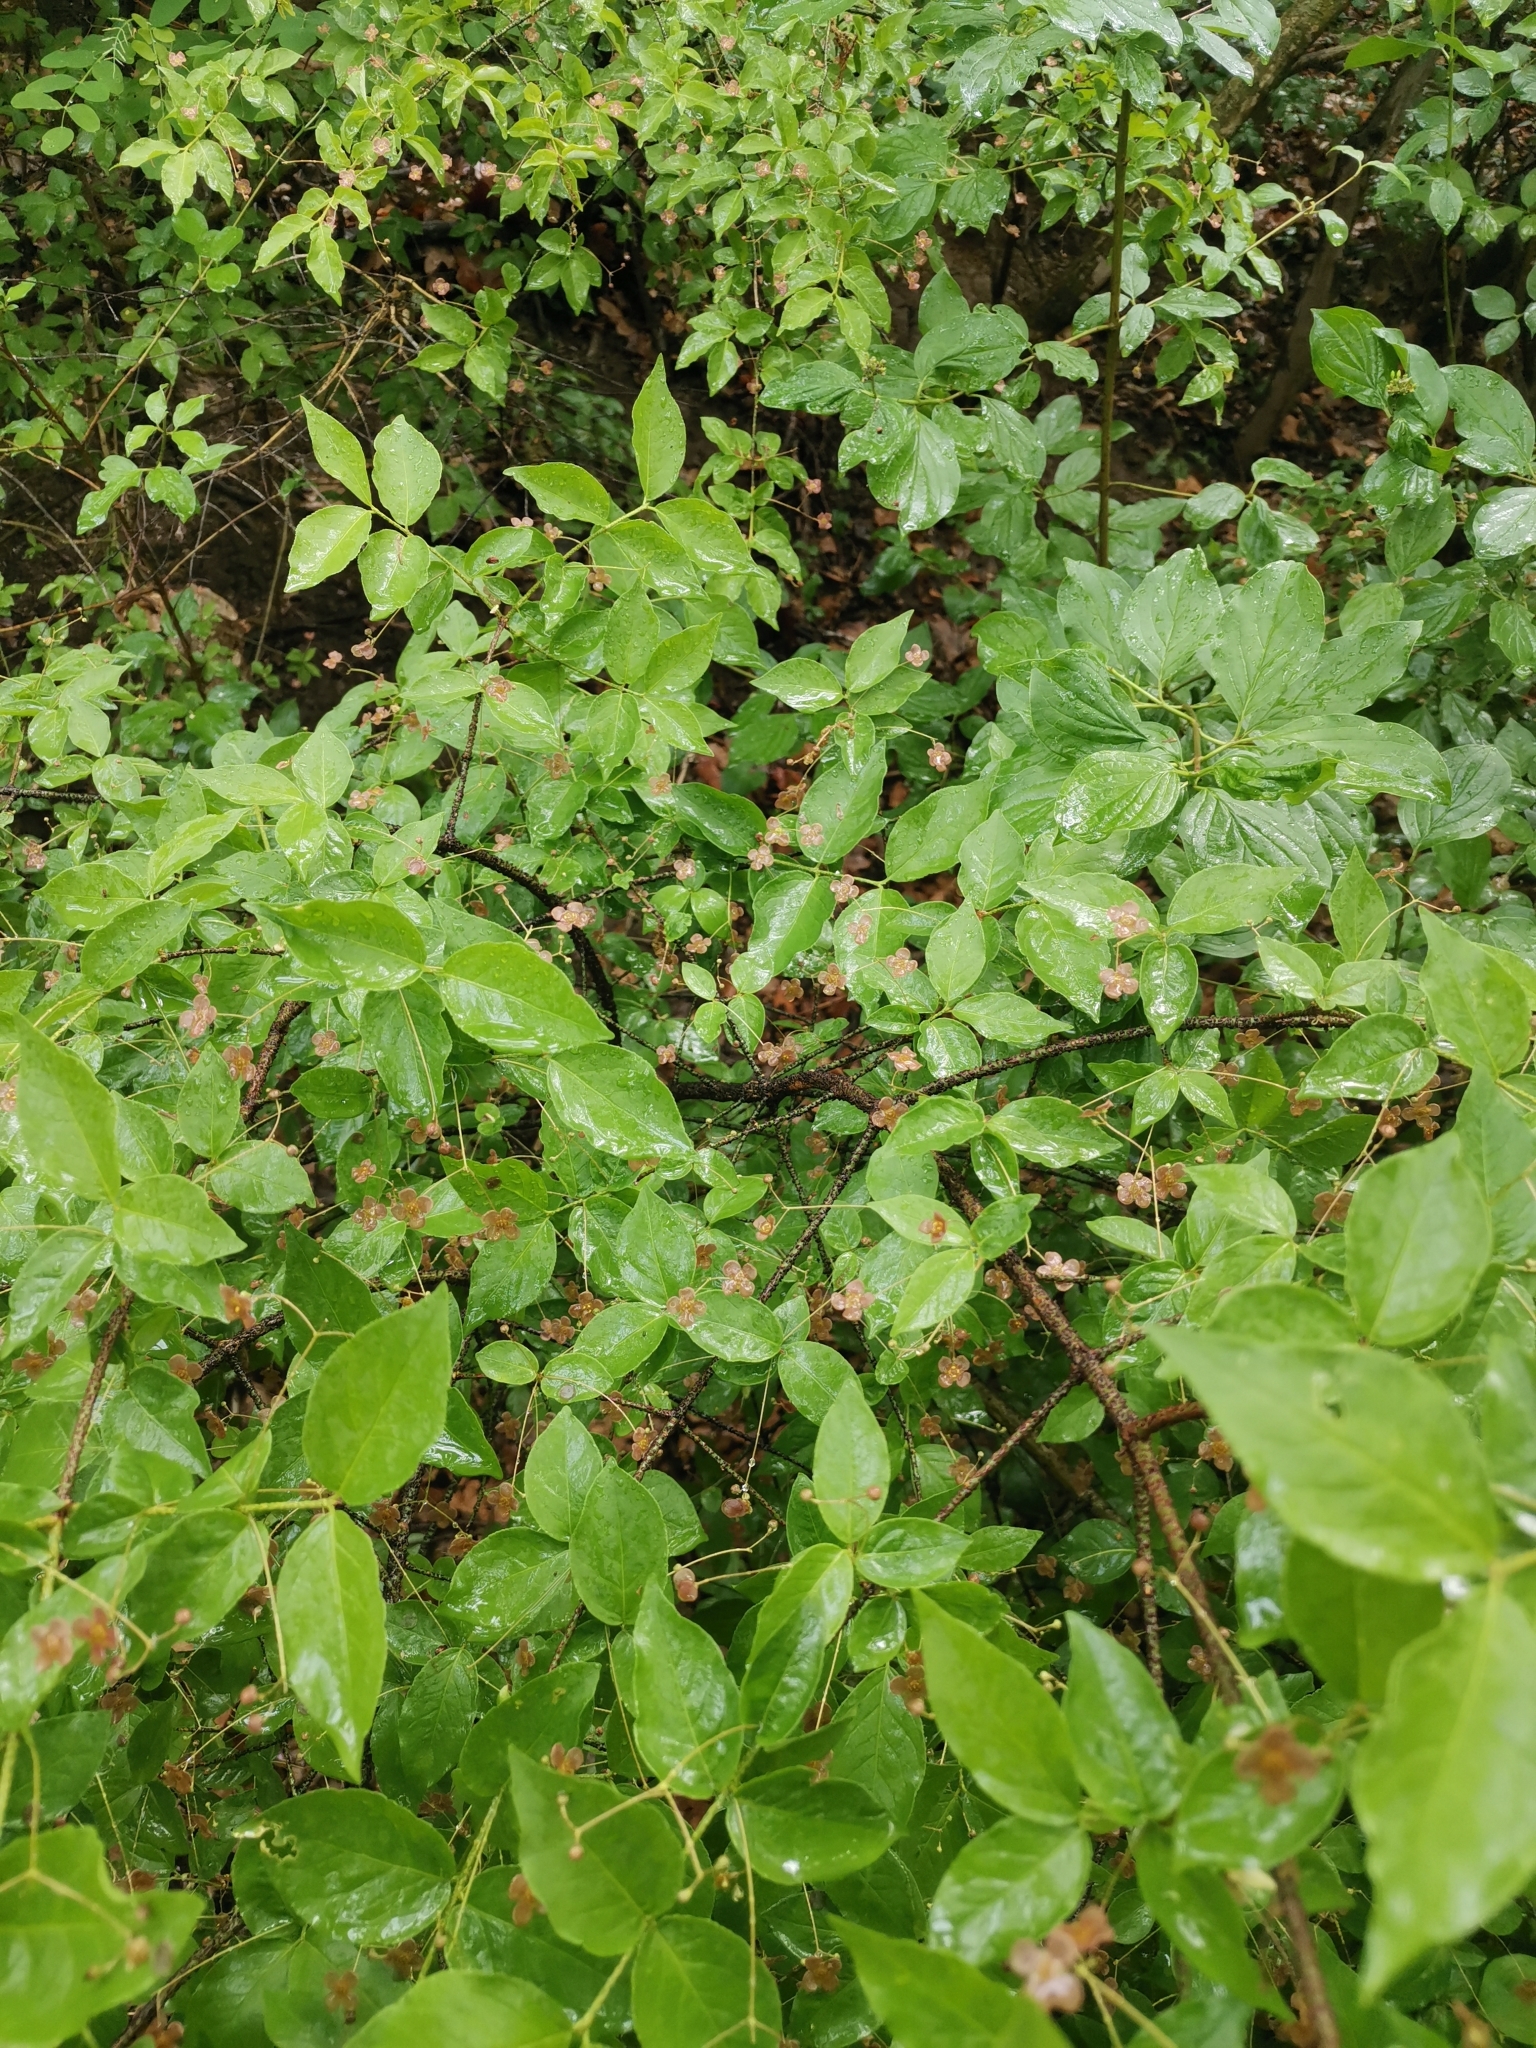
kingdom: Plantae
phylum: Tracheophyta
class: Magnoliopsida
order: Celastrales
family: Celastraceae
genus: Euonymus
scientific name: Euonymus verrucosus
